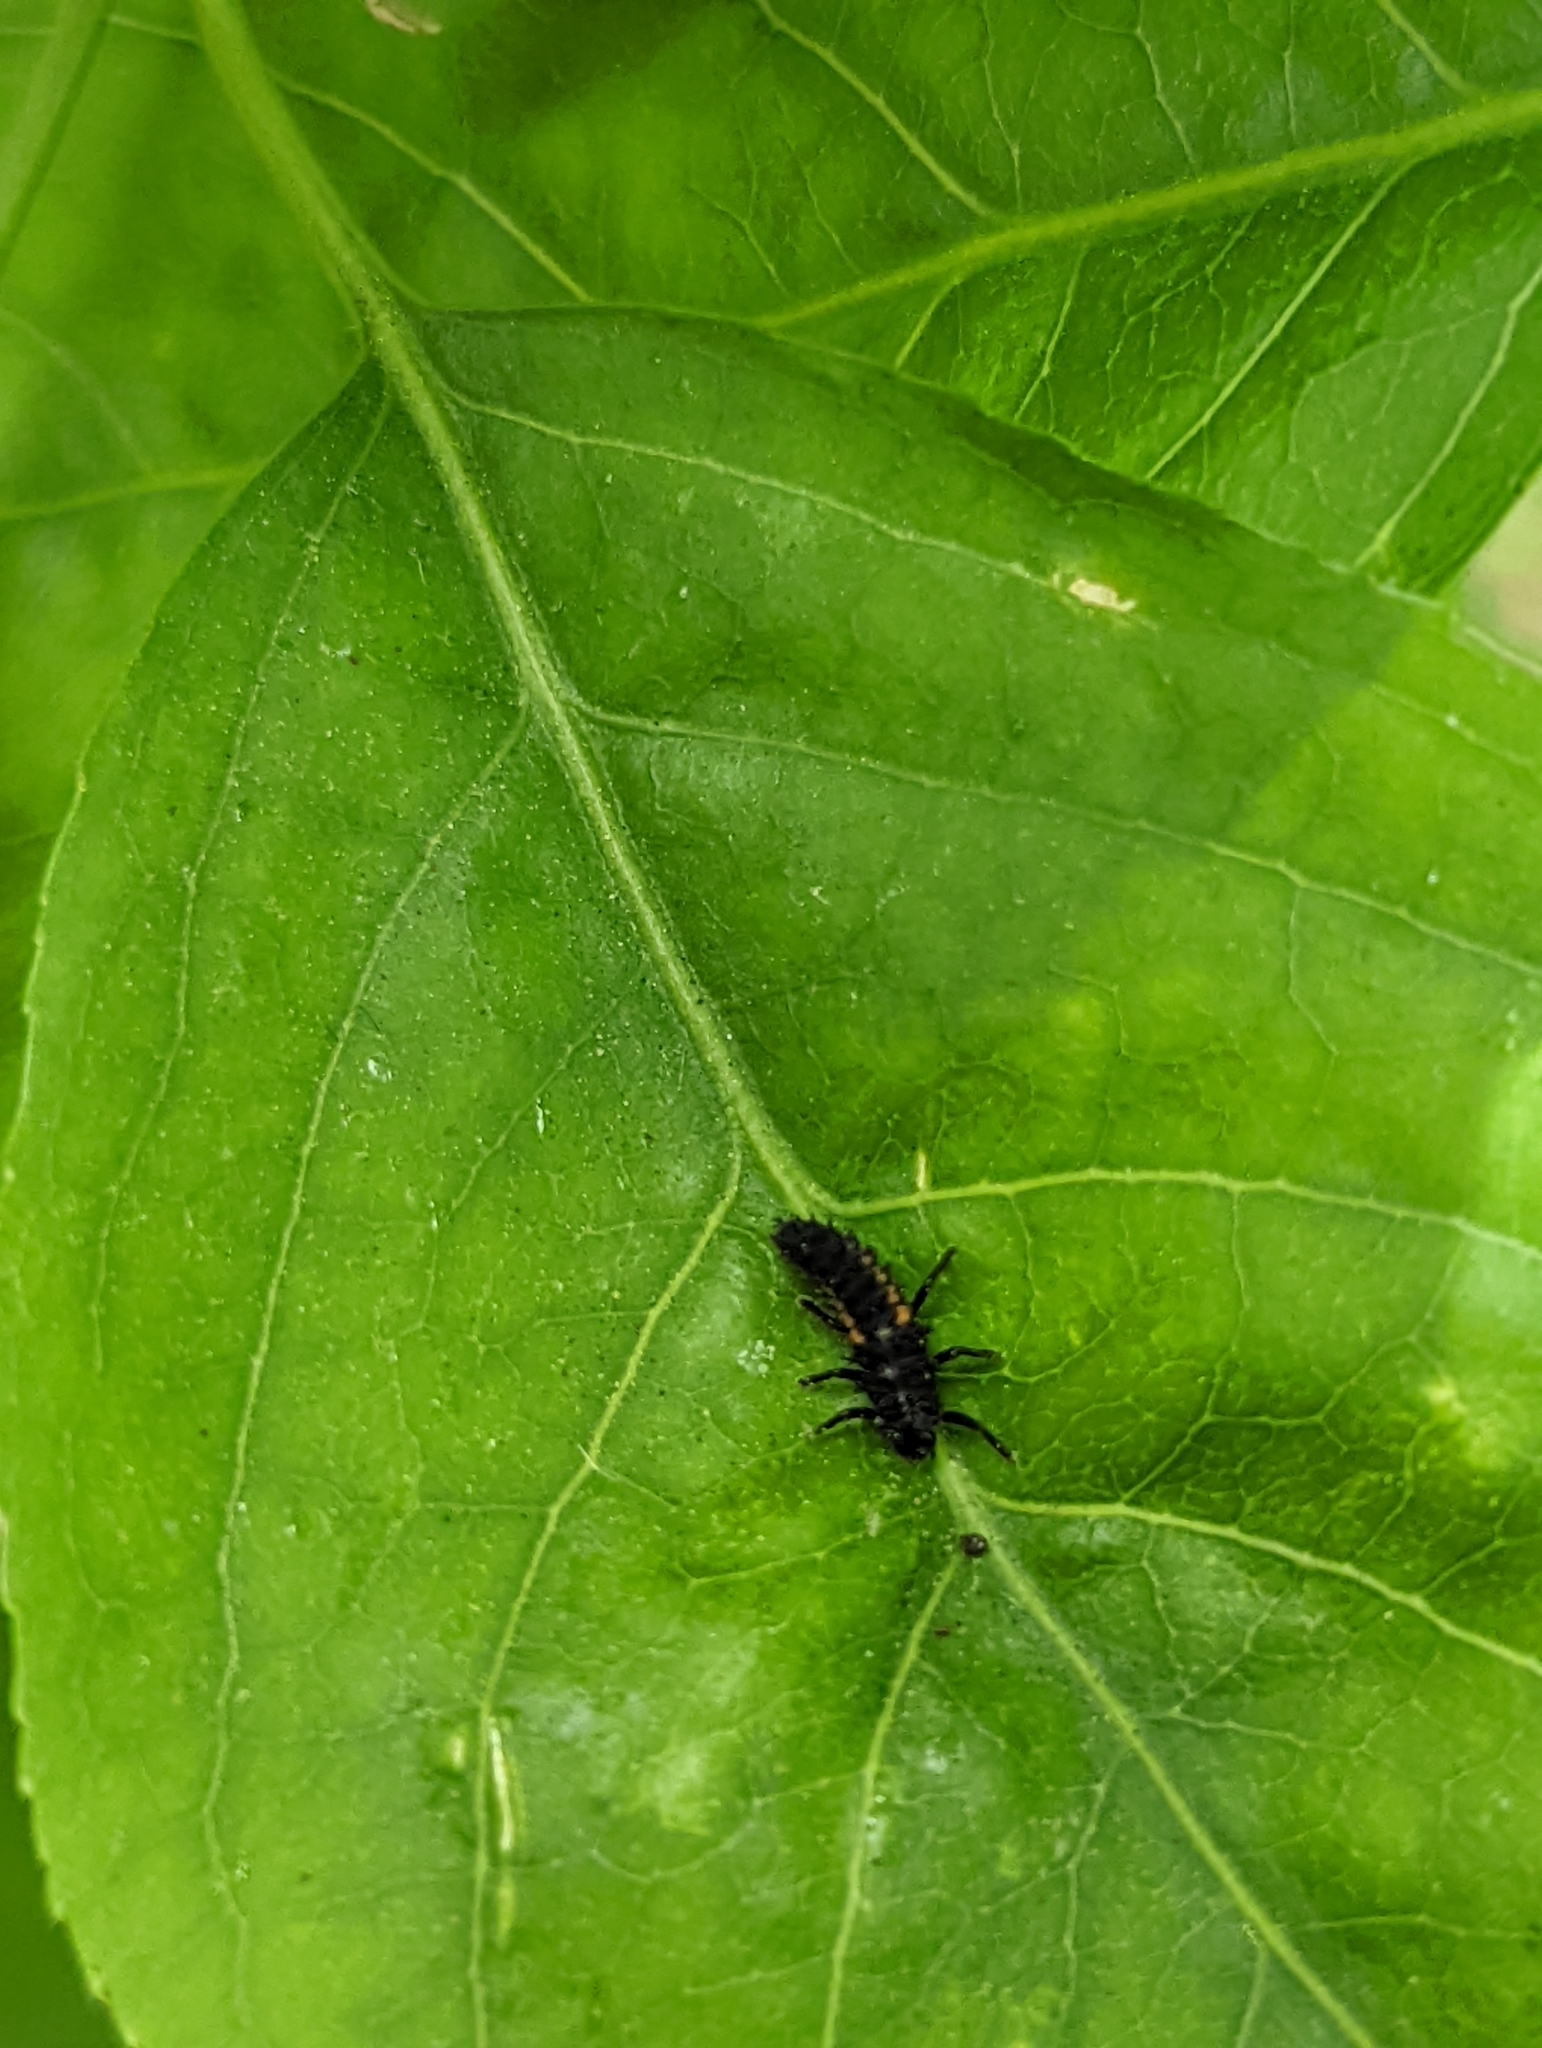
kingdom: Animalia
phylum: Arthropoda
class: Insecta
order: Coleoptera
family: Coccinellidae
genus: Harmonia
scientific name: Harmonia axyridis
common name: Harlequin ladybird
